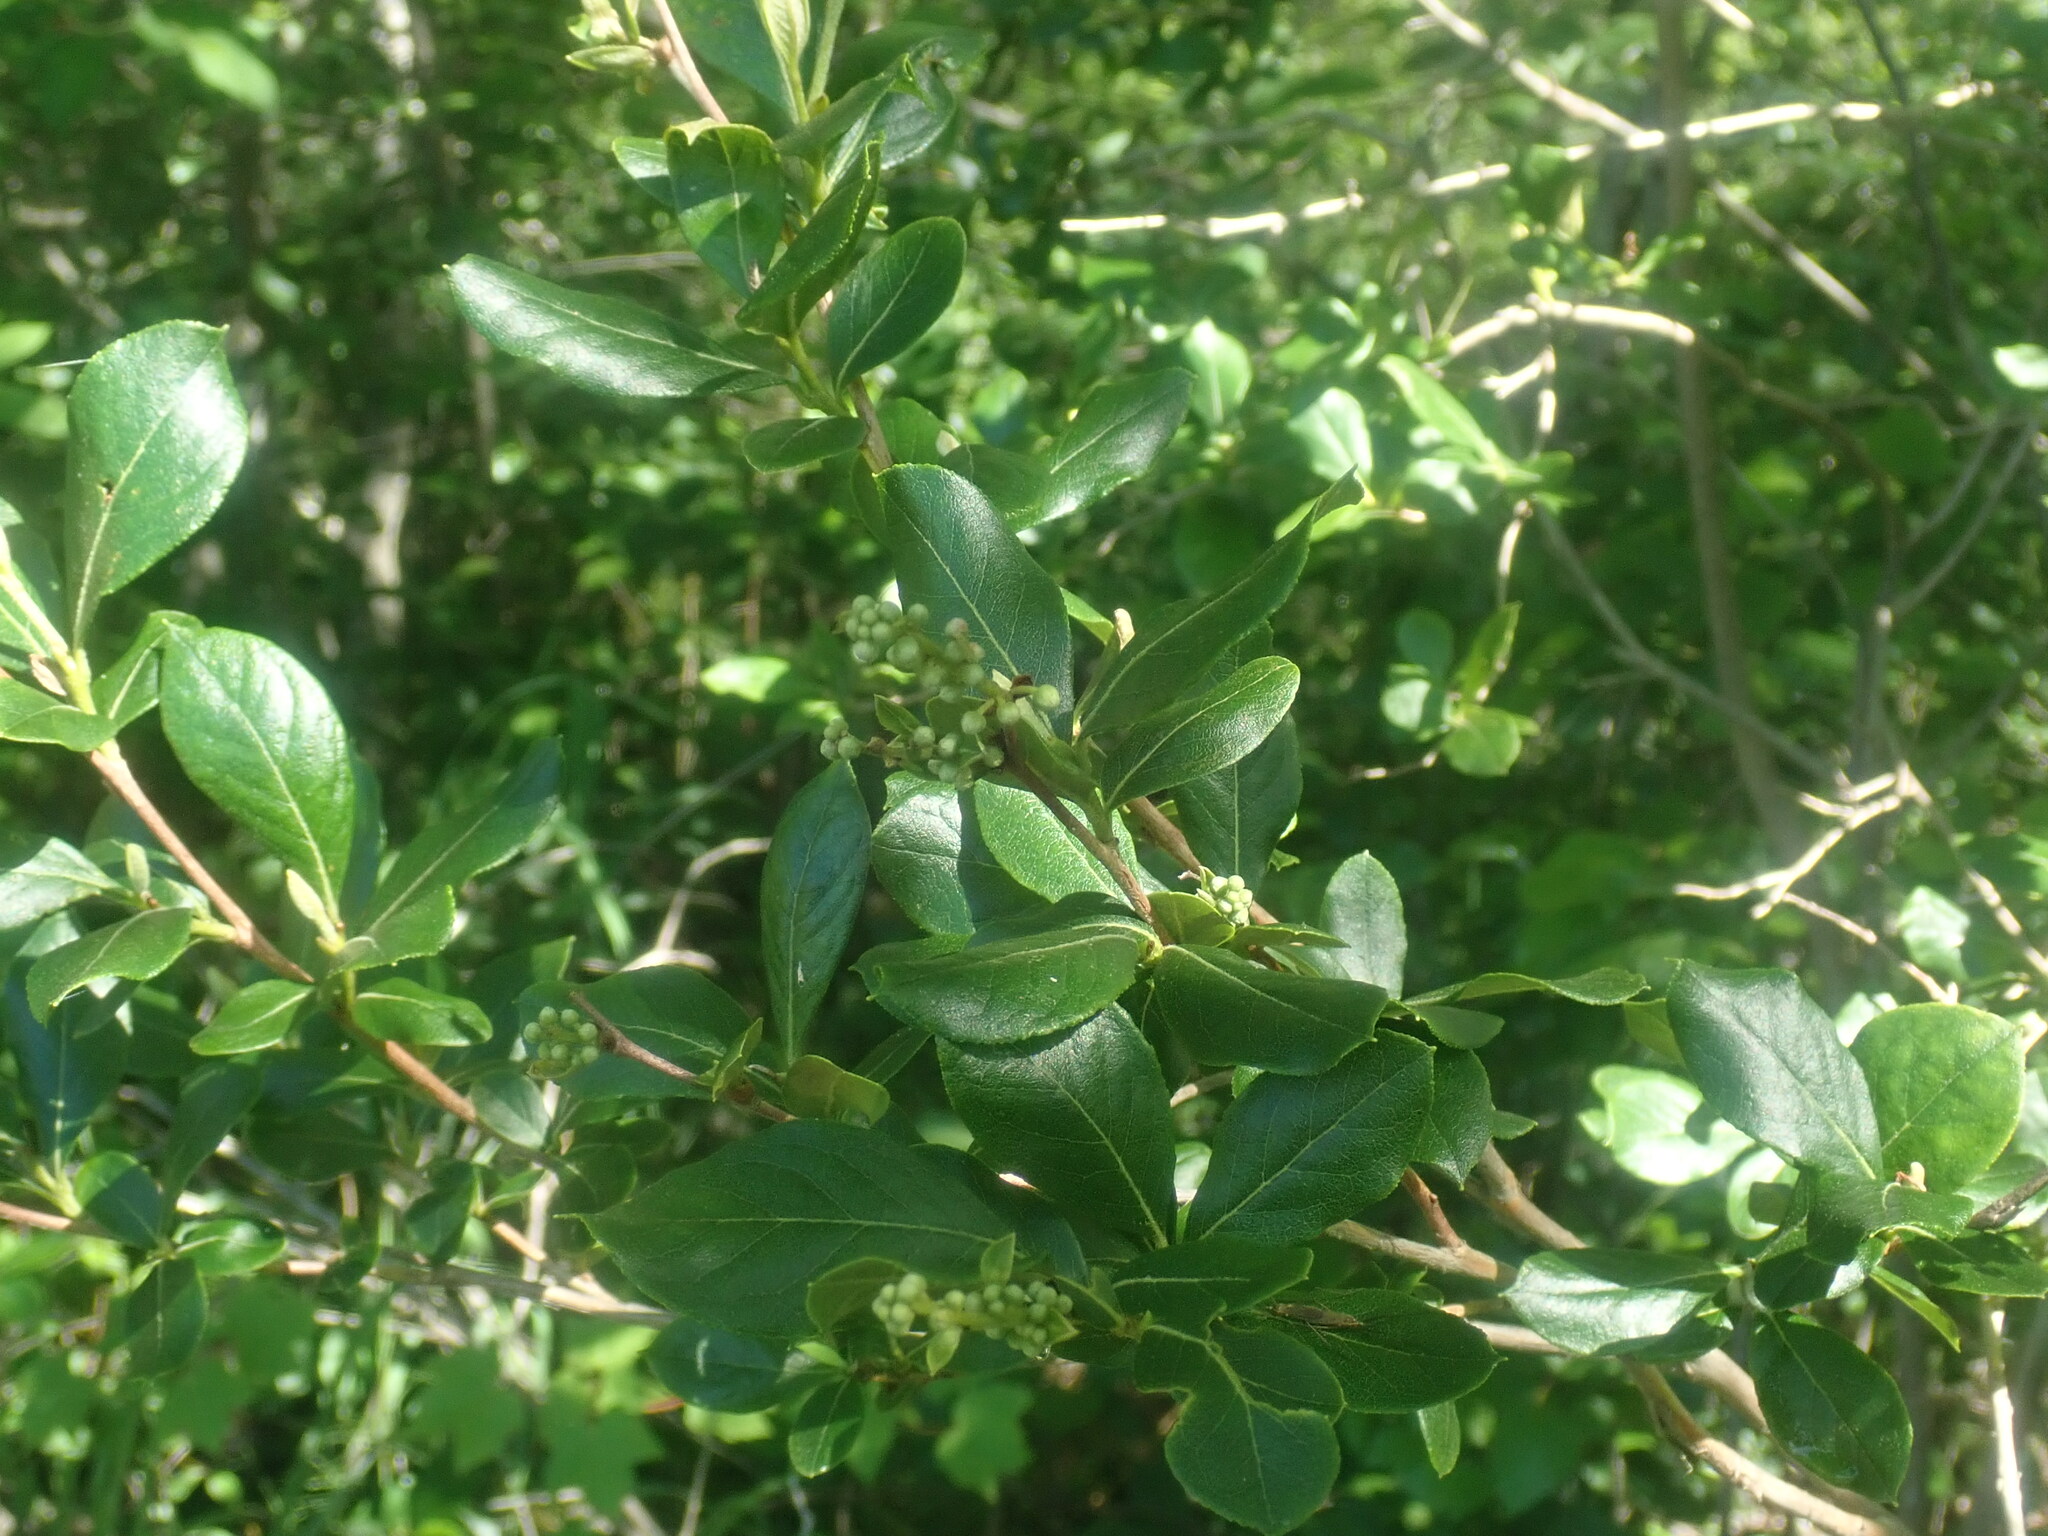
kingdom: Plantae
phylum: Tracheophyta
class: Magnoliopsida
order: Ericales
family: Ericaceae
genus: Lyonia
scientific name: Lyonia ligustrina
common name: Maleberry
